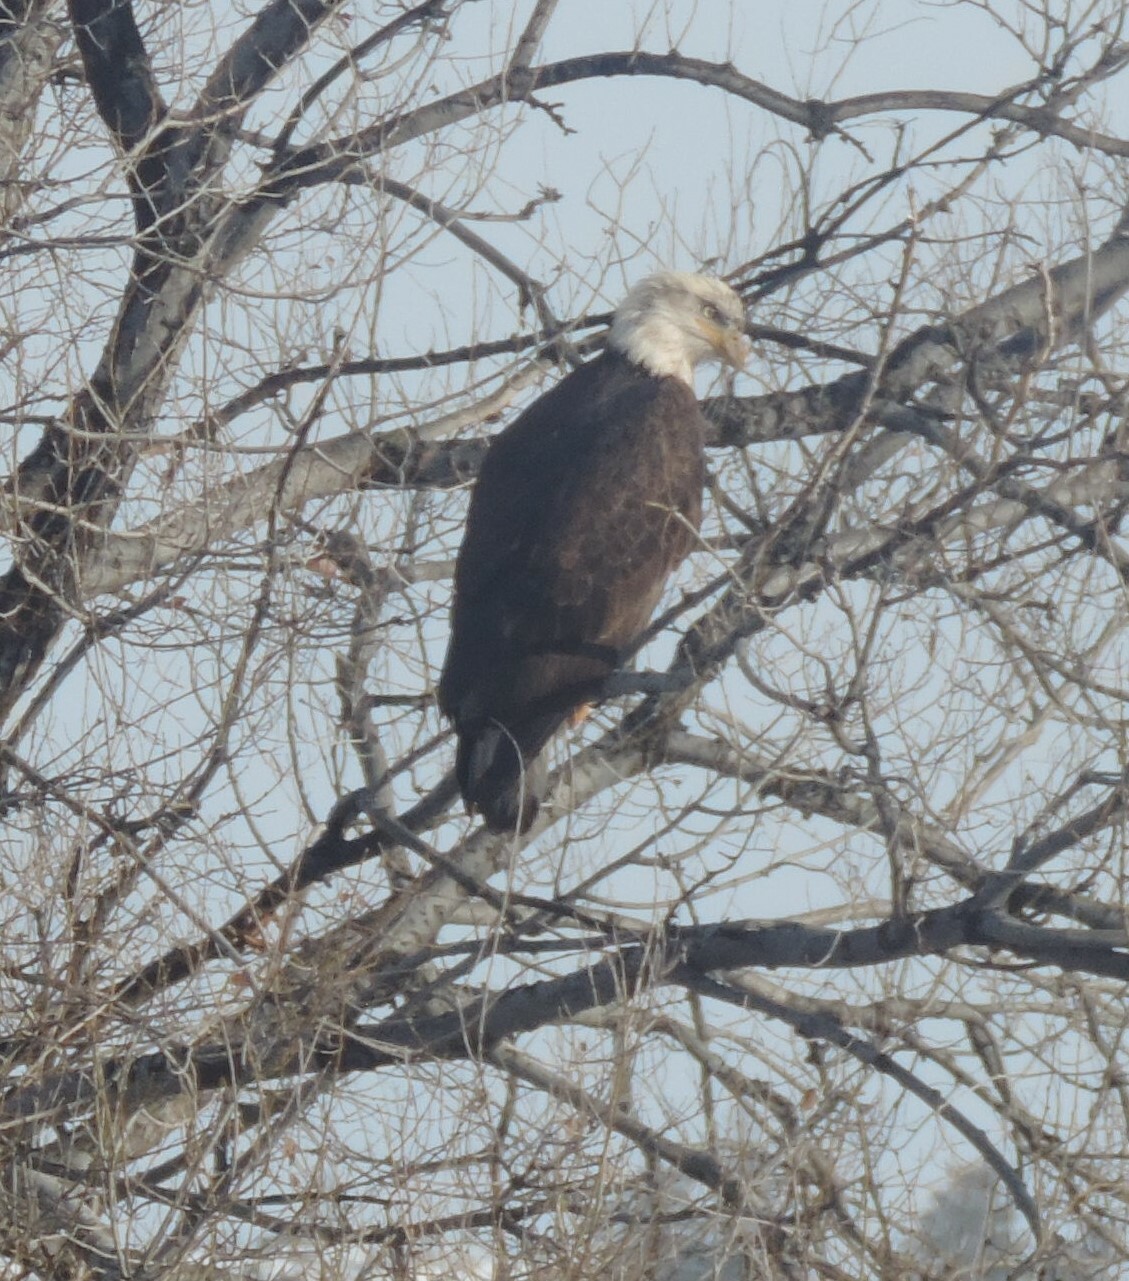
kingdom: Animalia
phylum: Chordata
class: Aves
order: Accipitriformes
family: Accipitridae
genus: Haliaeetus
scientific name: Haliaeetus leucocephalus
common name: Bald eagle
